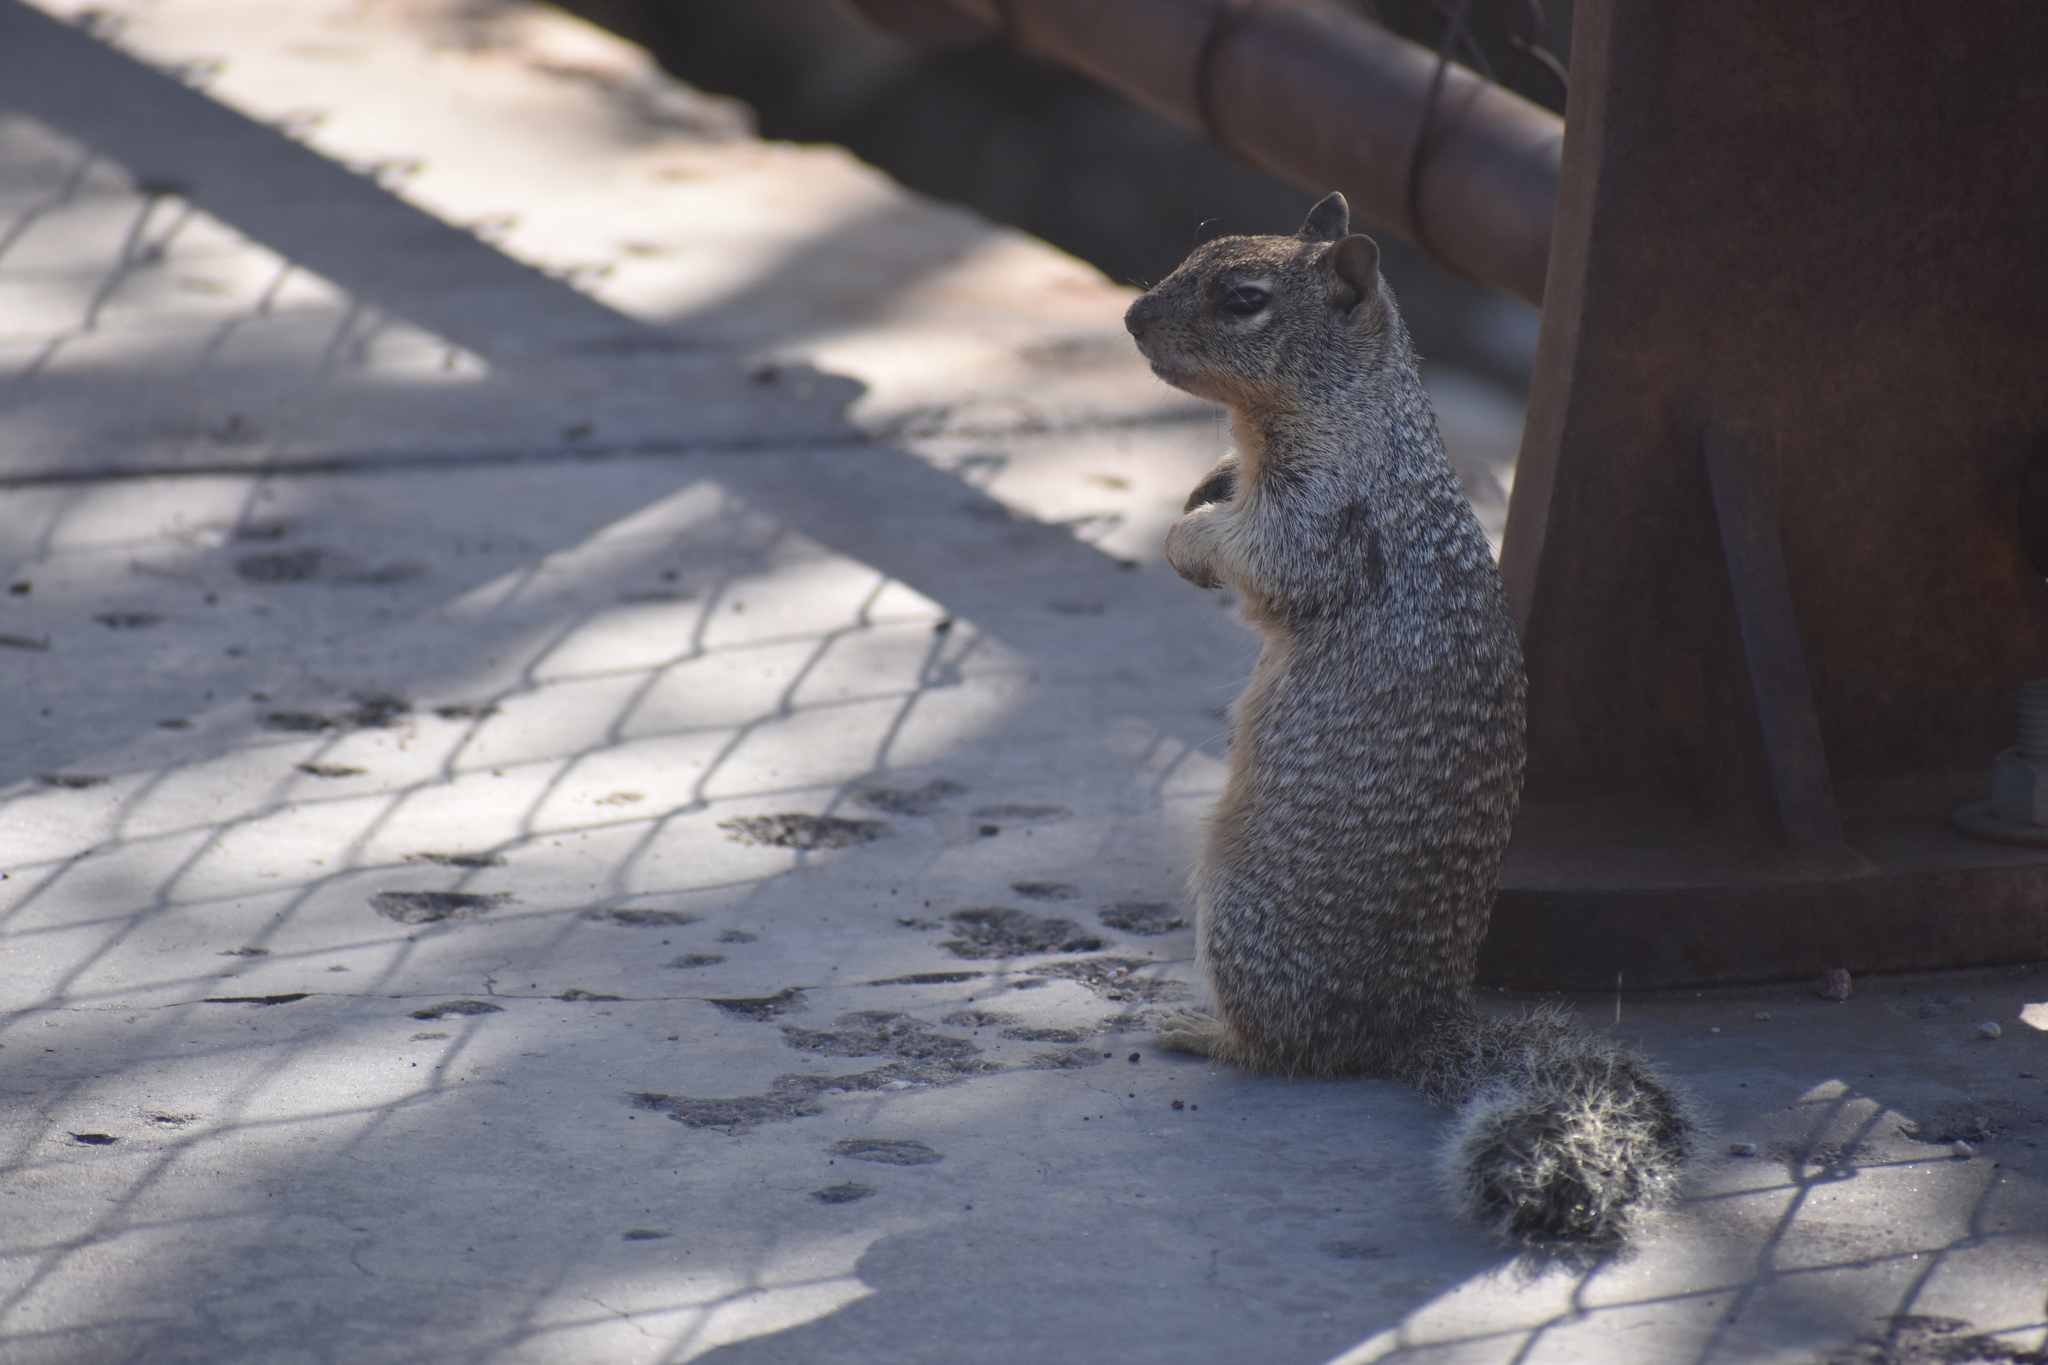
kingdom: Animalia
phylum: Chordata
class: Mammalia
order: Rodentia
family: Sciuridae
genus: Otospermophilus
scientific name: Otospermophilus variegatus
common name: Rock squirrel
